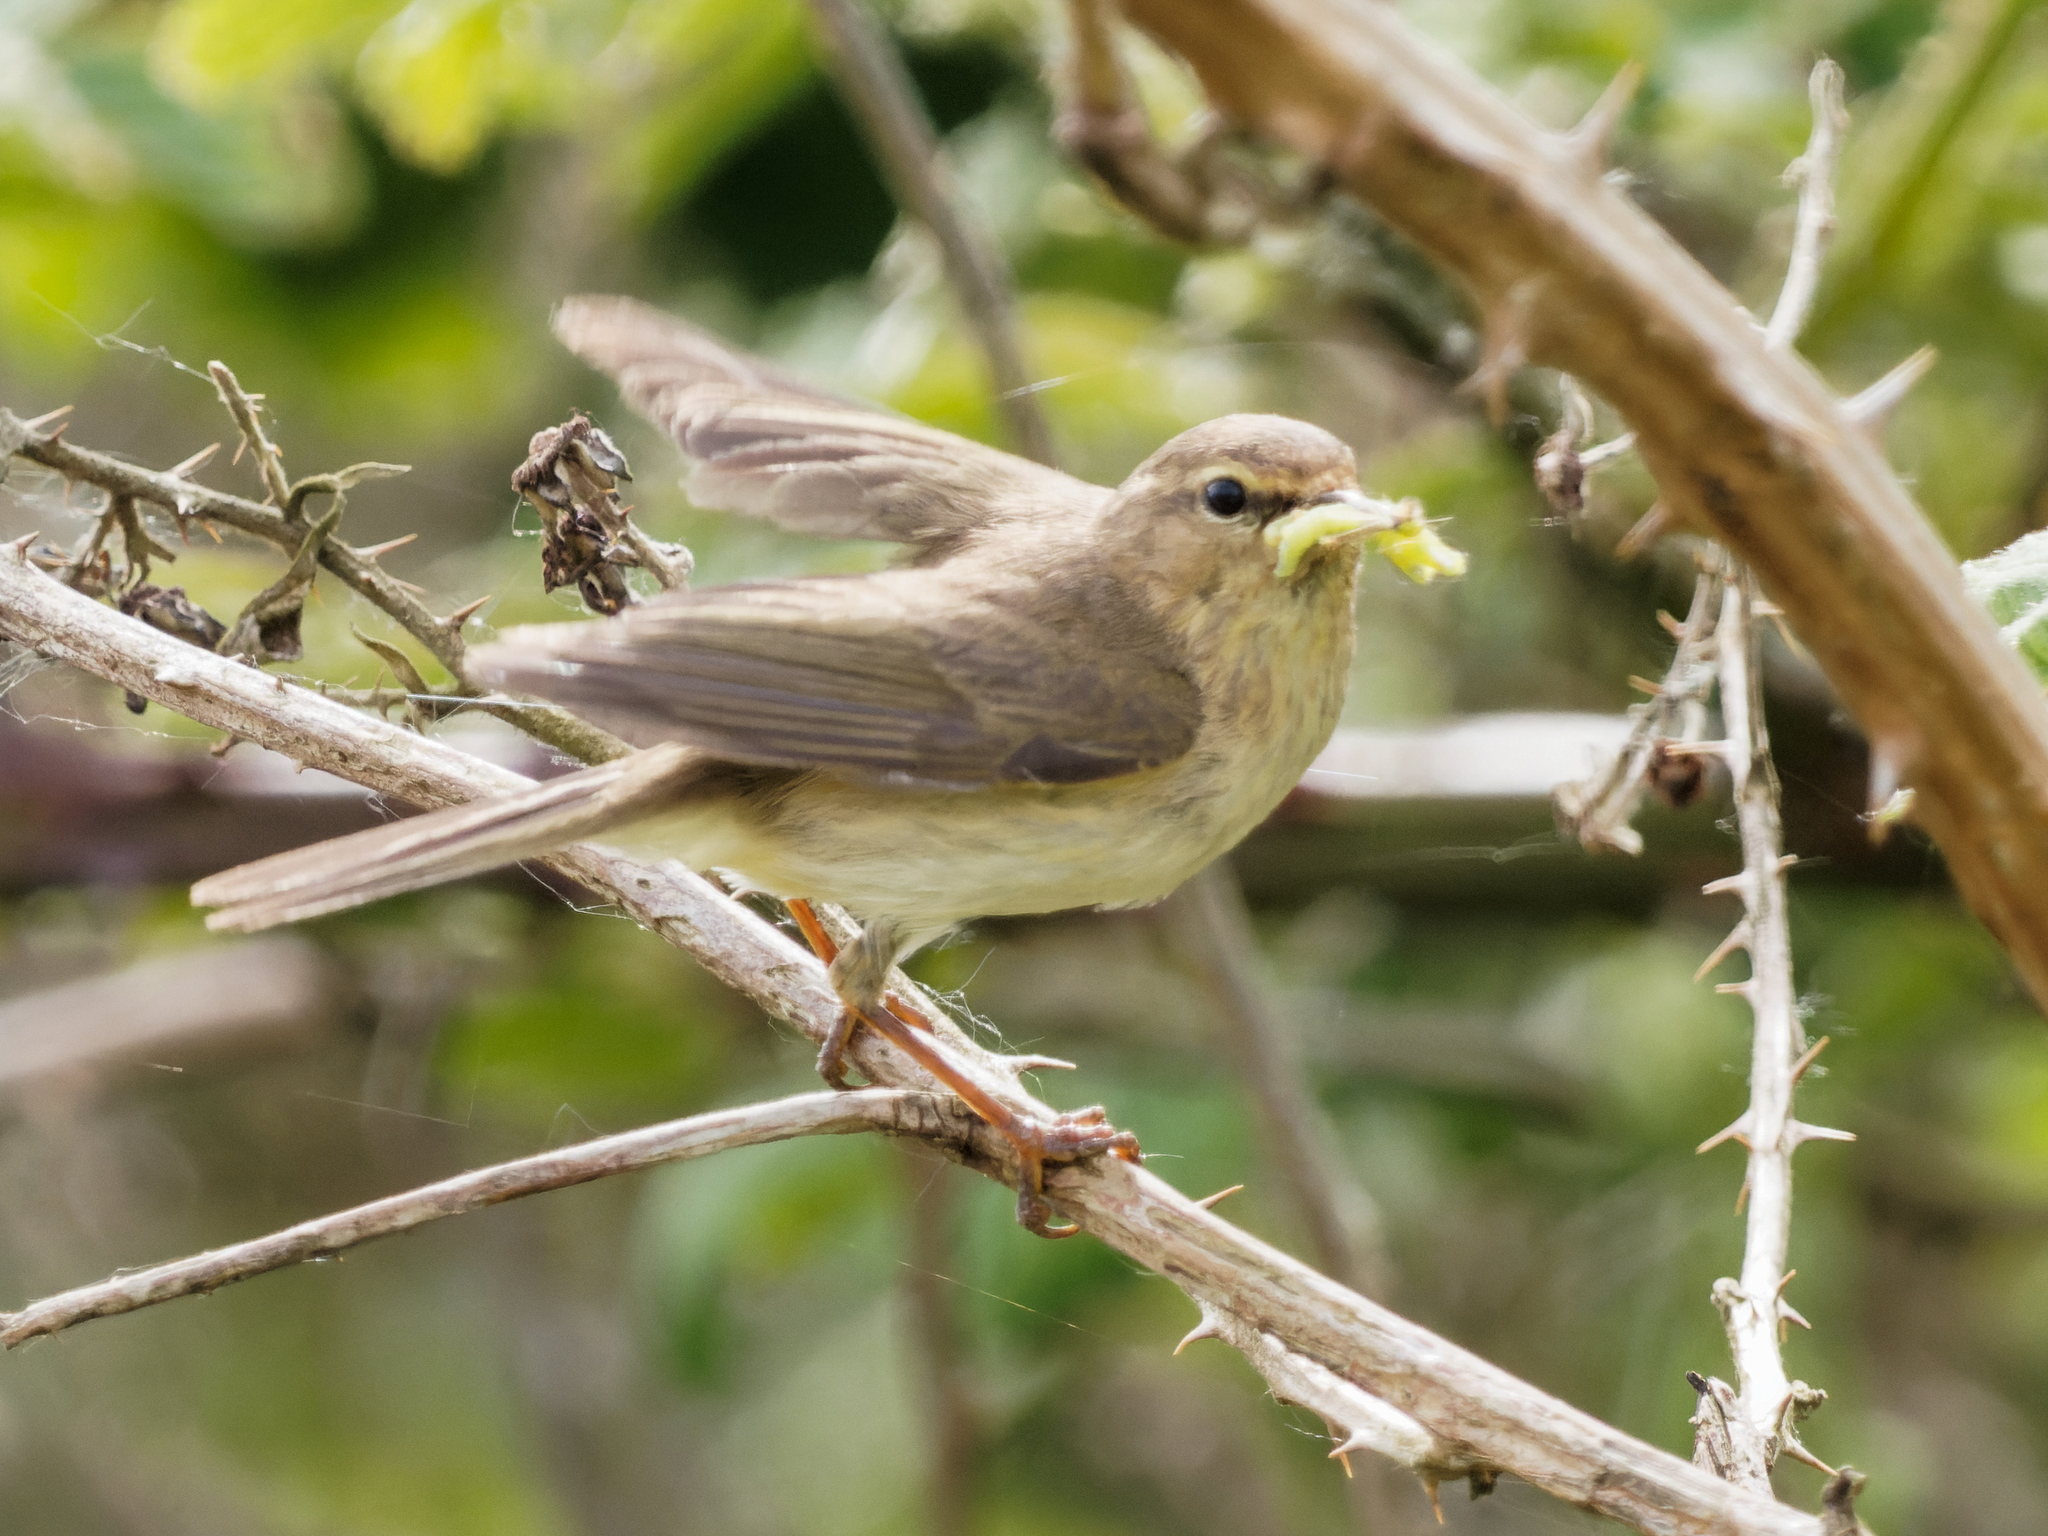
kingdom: Animalia
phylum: Chordata
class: Aves
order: Passeriformes
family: Phylloscopidae
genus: Phylloscopus
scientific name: Phylloscopus trochilus
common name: Willow warbler
